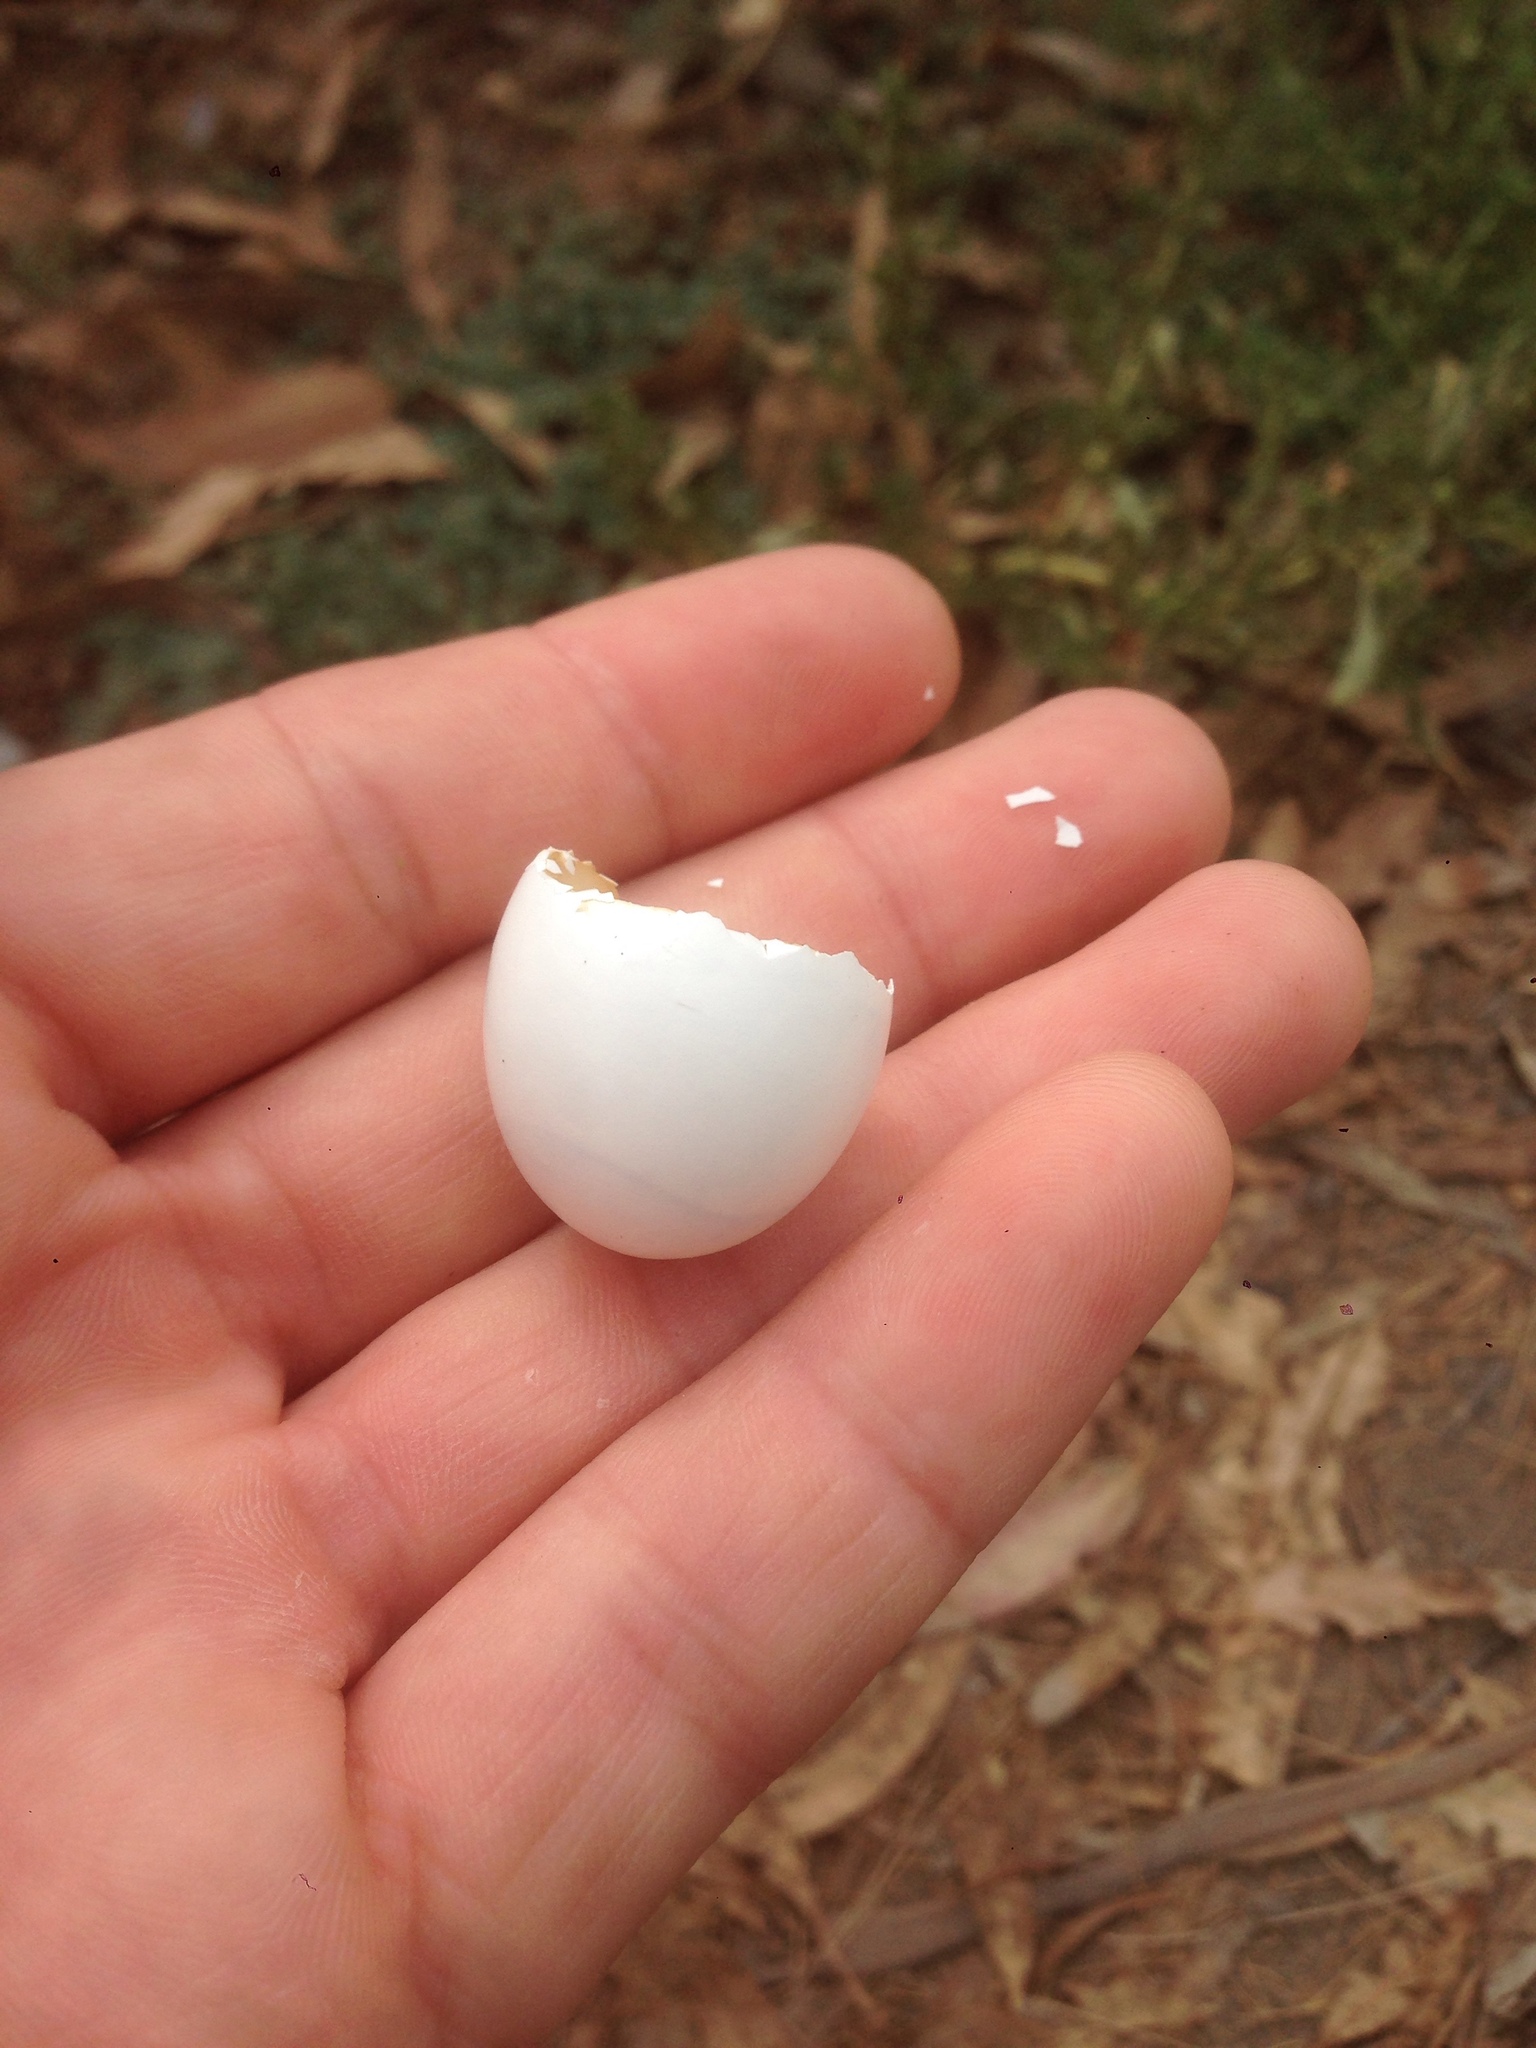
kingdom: Animalia
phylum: Chordata
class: Aves
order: Columbiformes
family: Columbidae
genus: Streptopelia
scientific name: Streptopelia decaocto
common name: Eurasian collared dove
